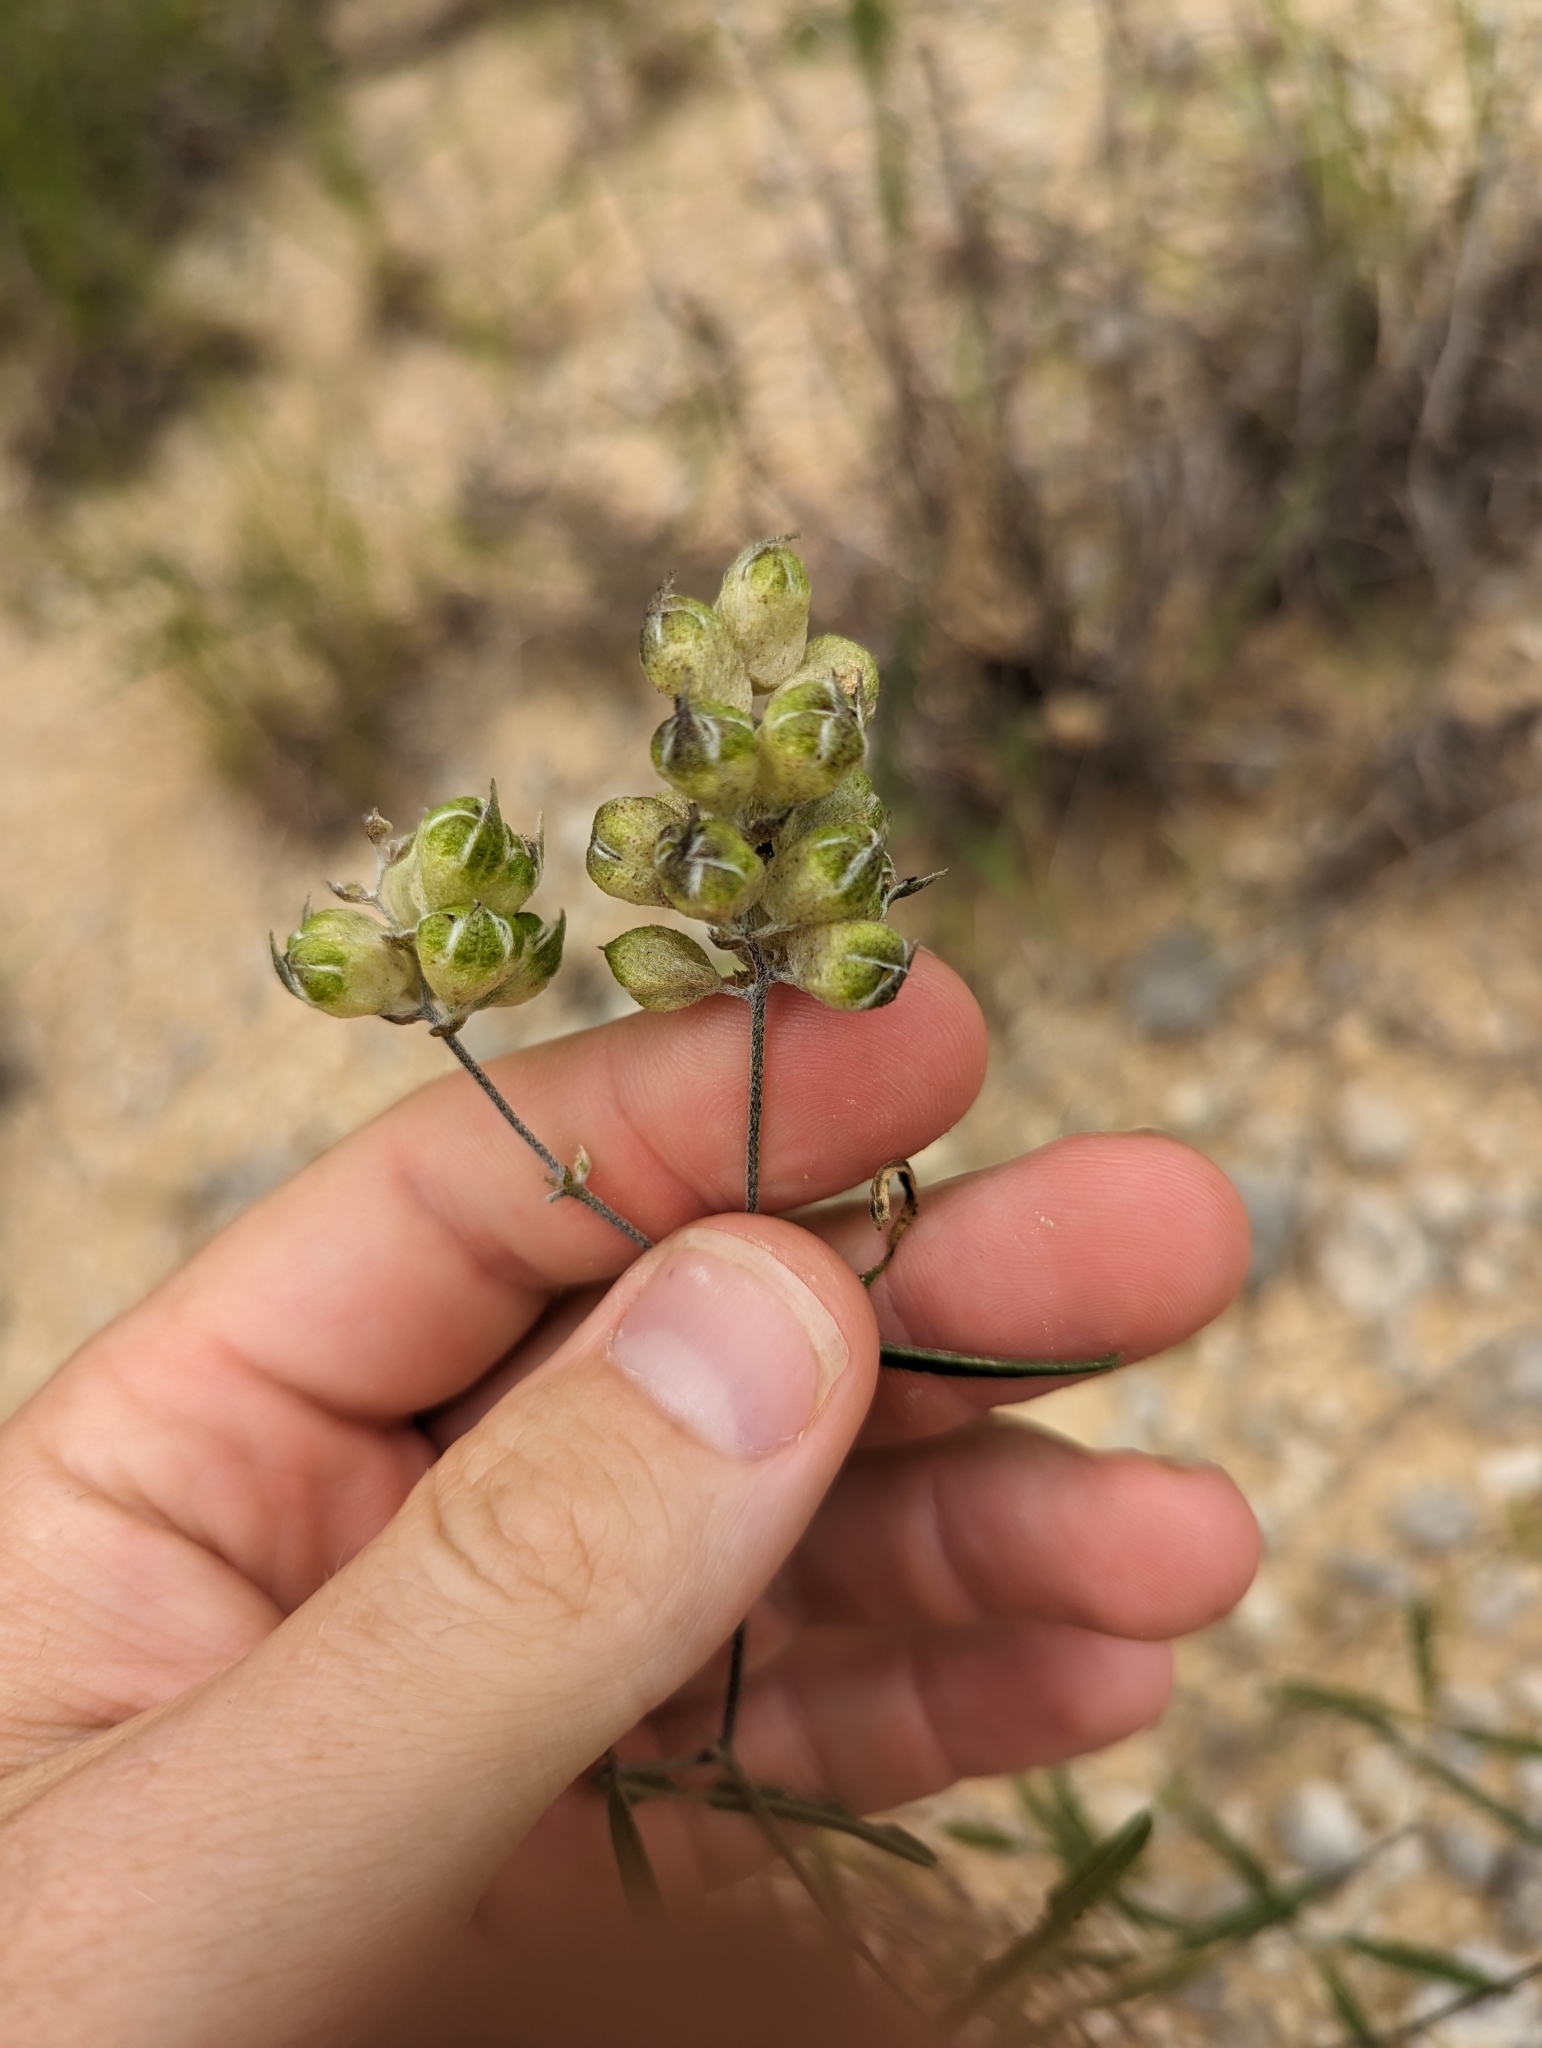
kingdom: Plantae
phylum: Tracheophyta
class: Magnoliopsida
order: Fabales
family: Fabaceae
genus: Pediomelum
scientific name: Pediomelum cyphocalyx
